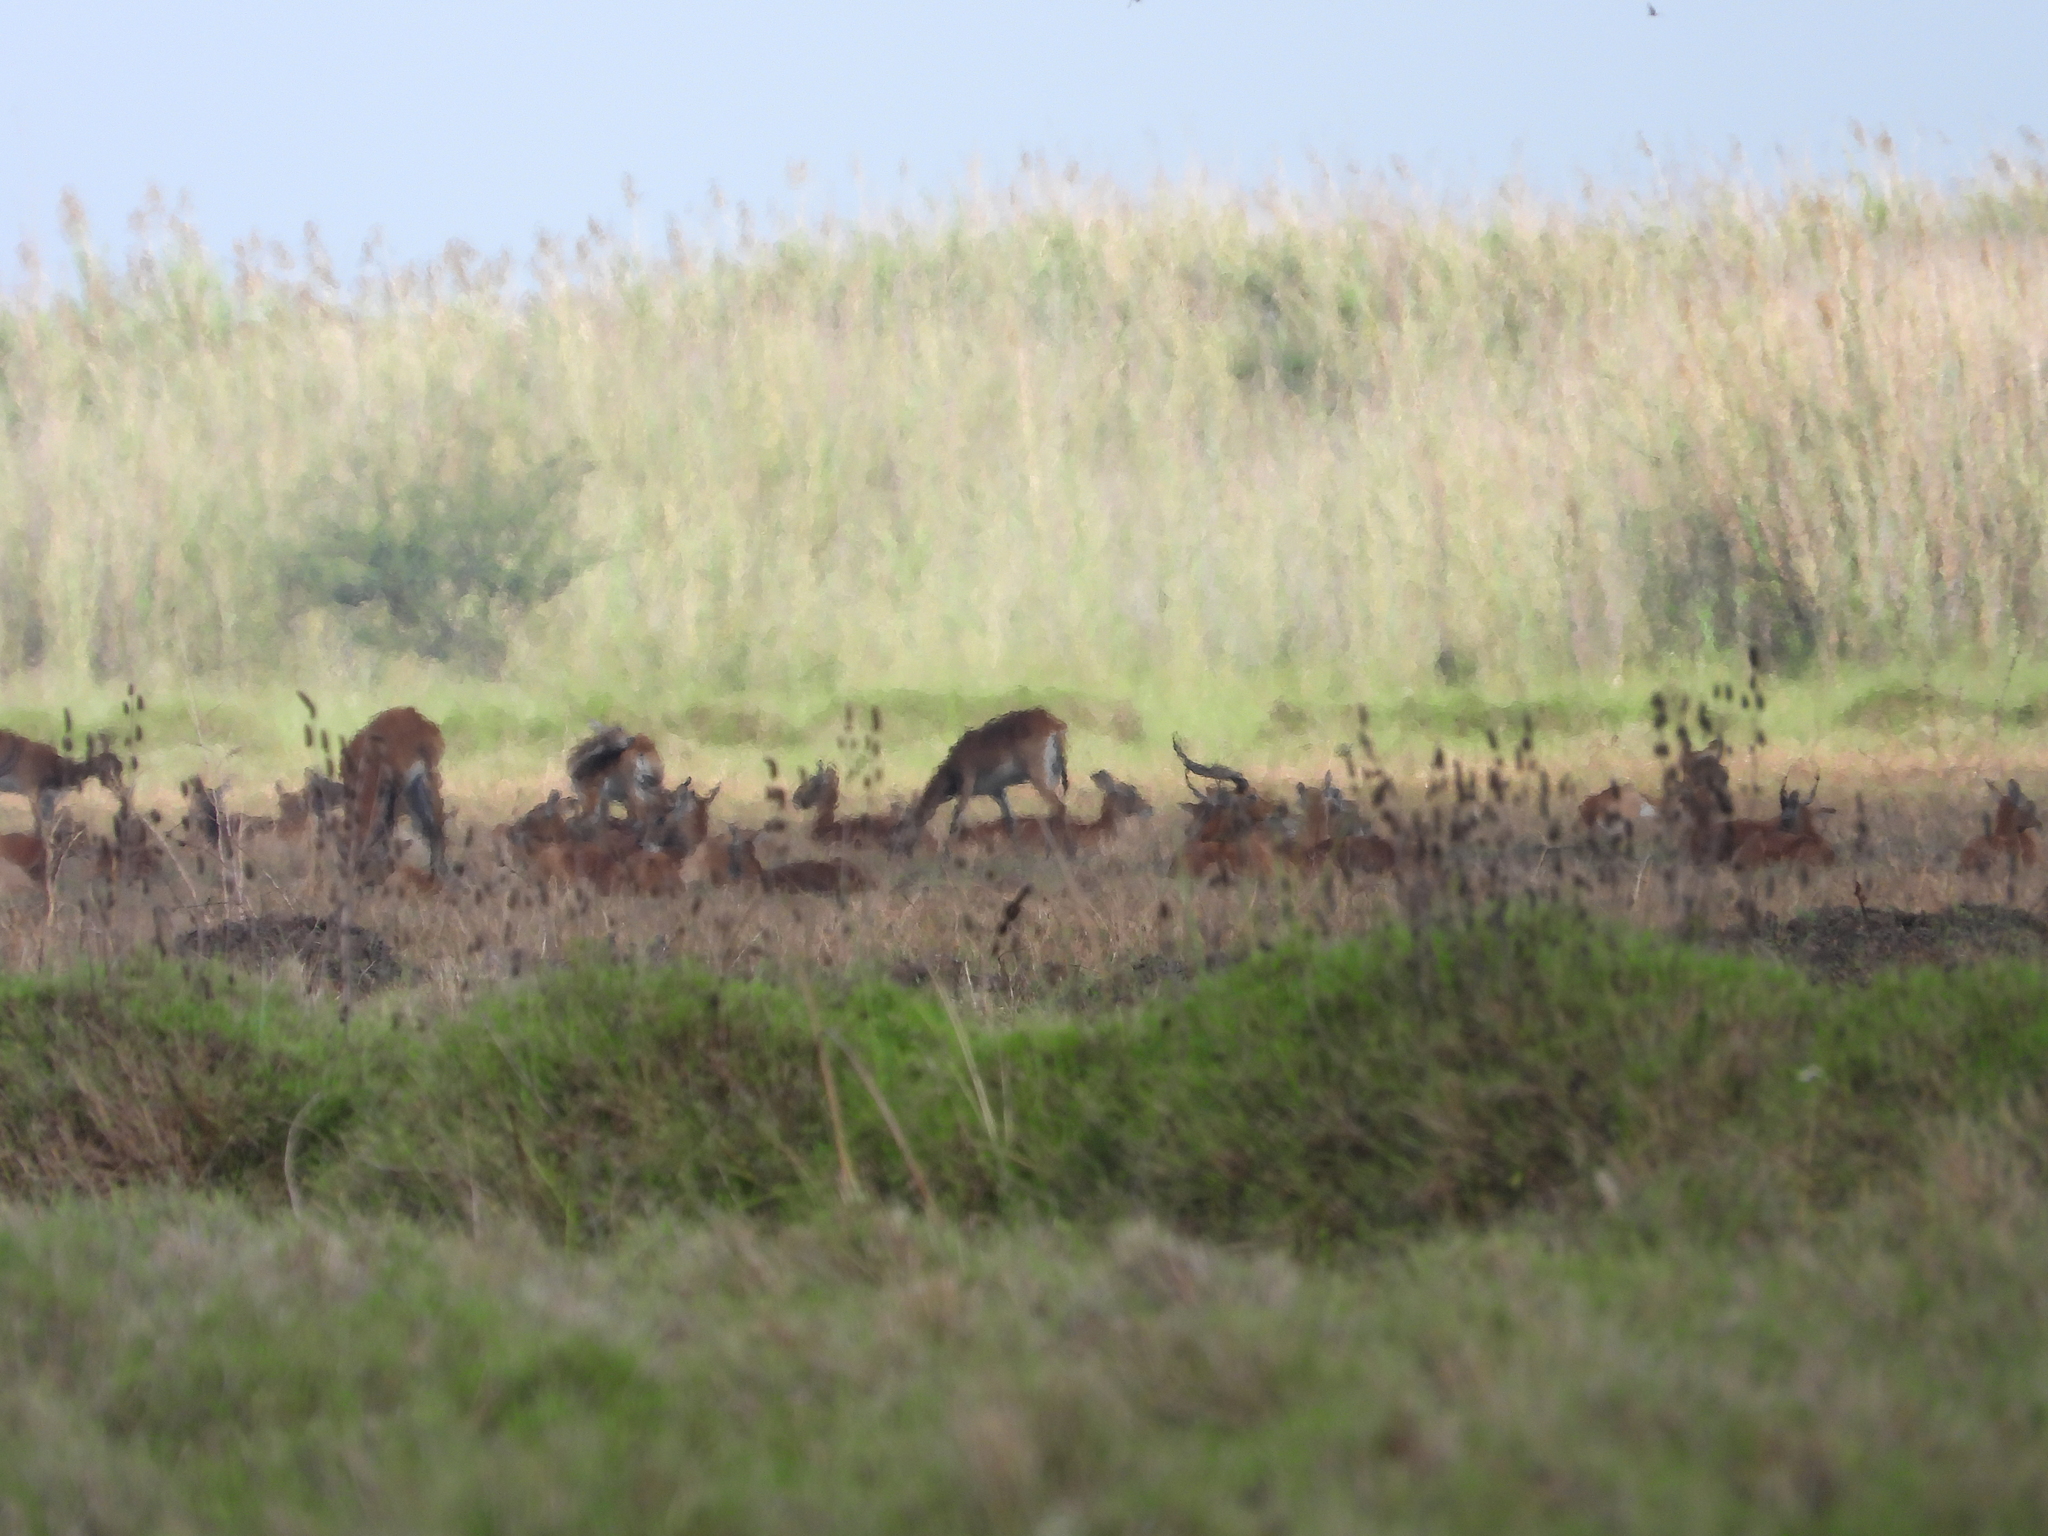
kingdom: Animalia
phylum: Chordata
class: Mammalia
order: Artiodactyla
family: Bovidae
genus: Kobus
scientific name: Kobus leche
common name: Lechwe
